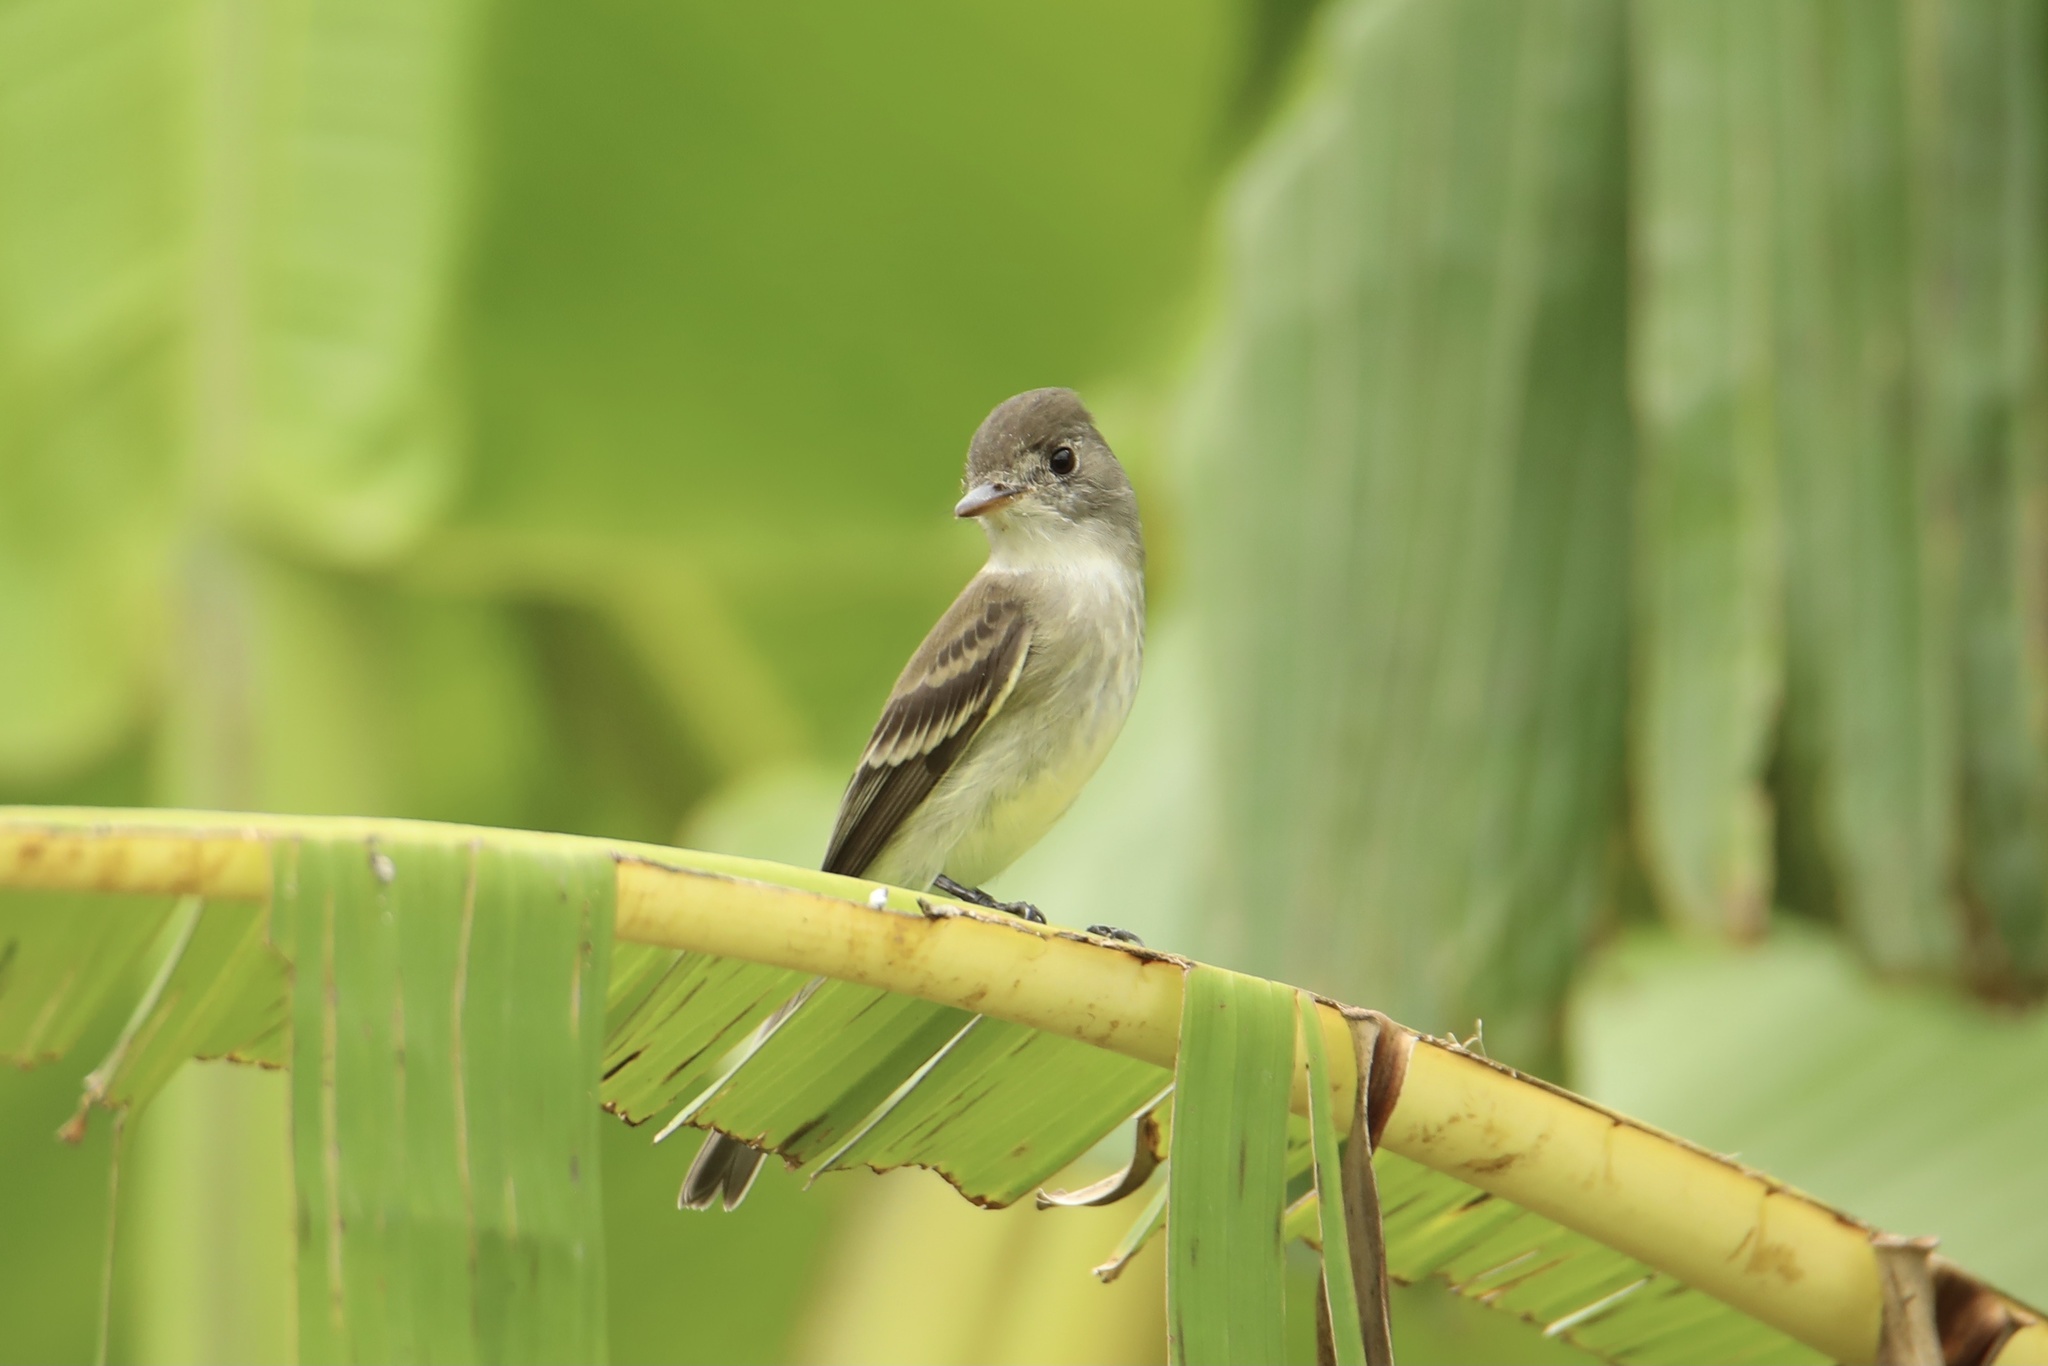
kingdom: Animalia
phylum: Chordata
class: Aves
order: Passeriformes
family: Tyrannidae
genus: Contopus
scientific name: Contopus virens
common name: Eastern wood-pewee
